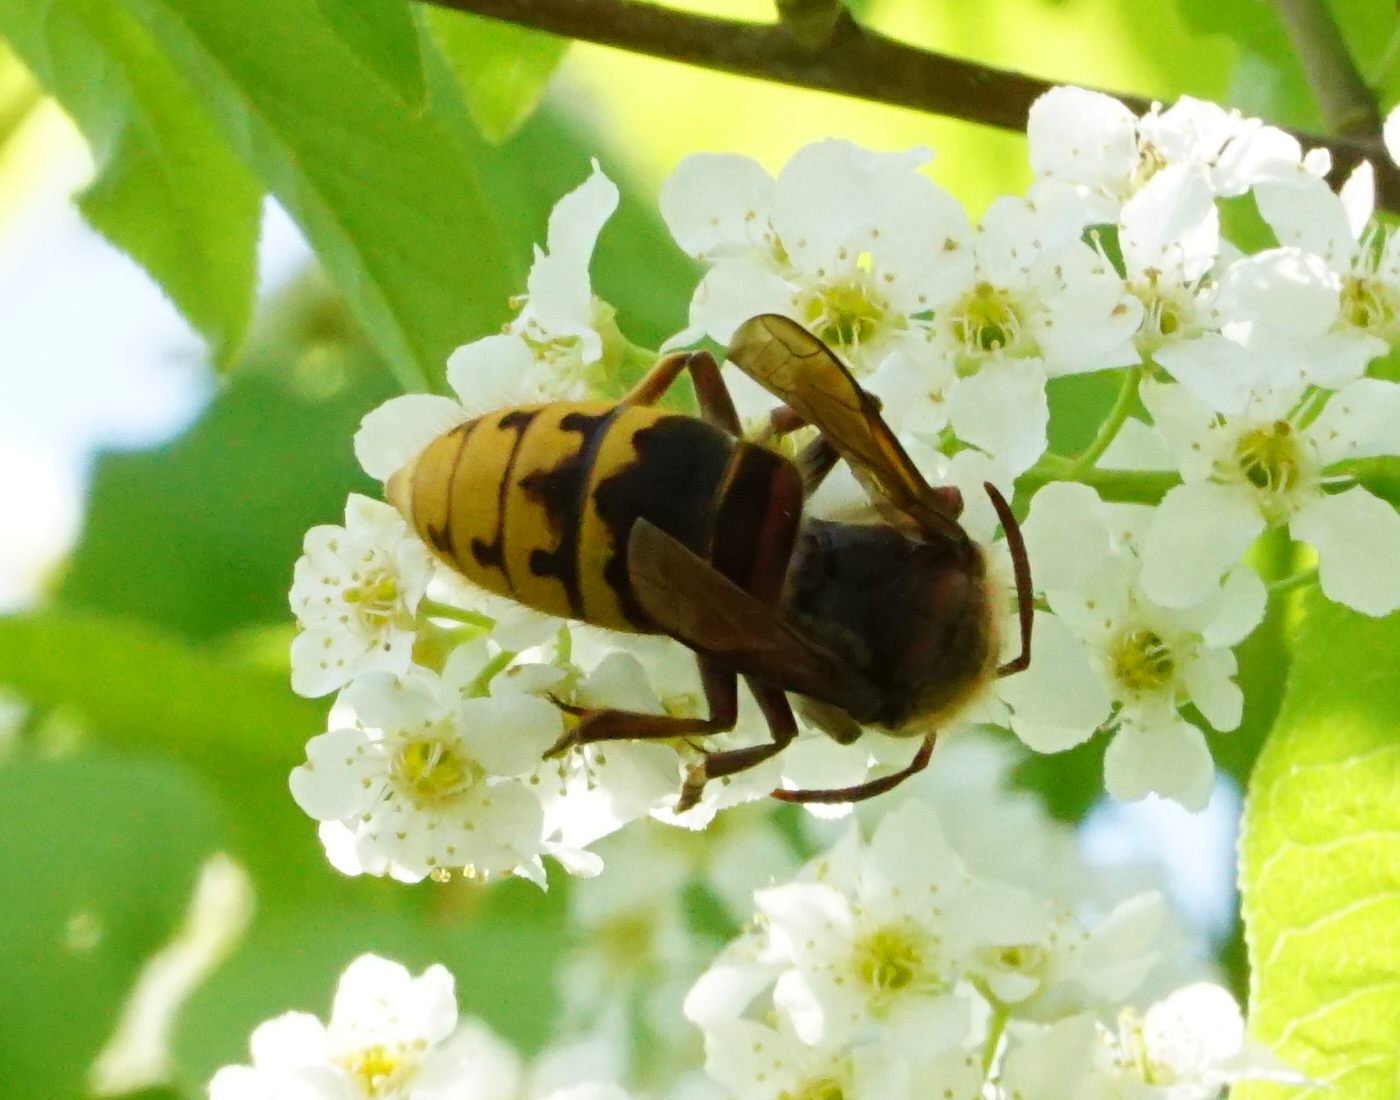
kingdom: Animalia
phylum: Arthropoda
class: Insecta
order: Hymenoptera
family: Vespidae
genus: Vespa
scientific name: Vespa crabro
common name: Hornet
